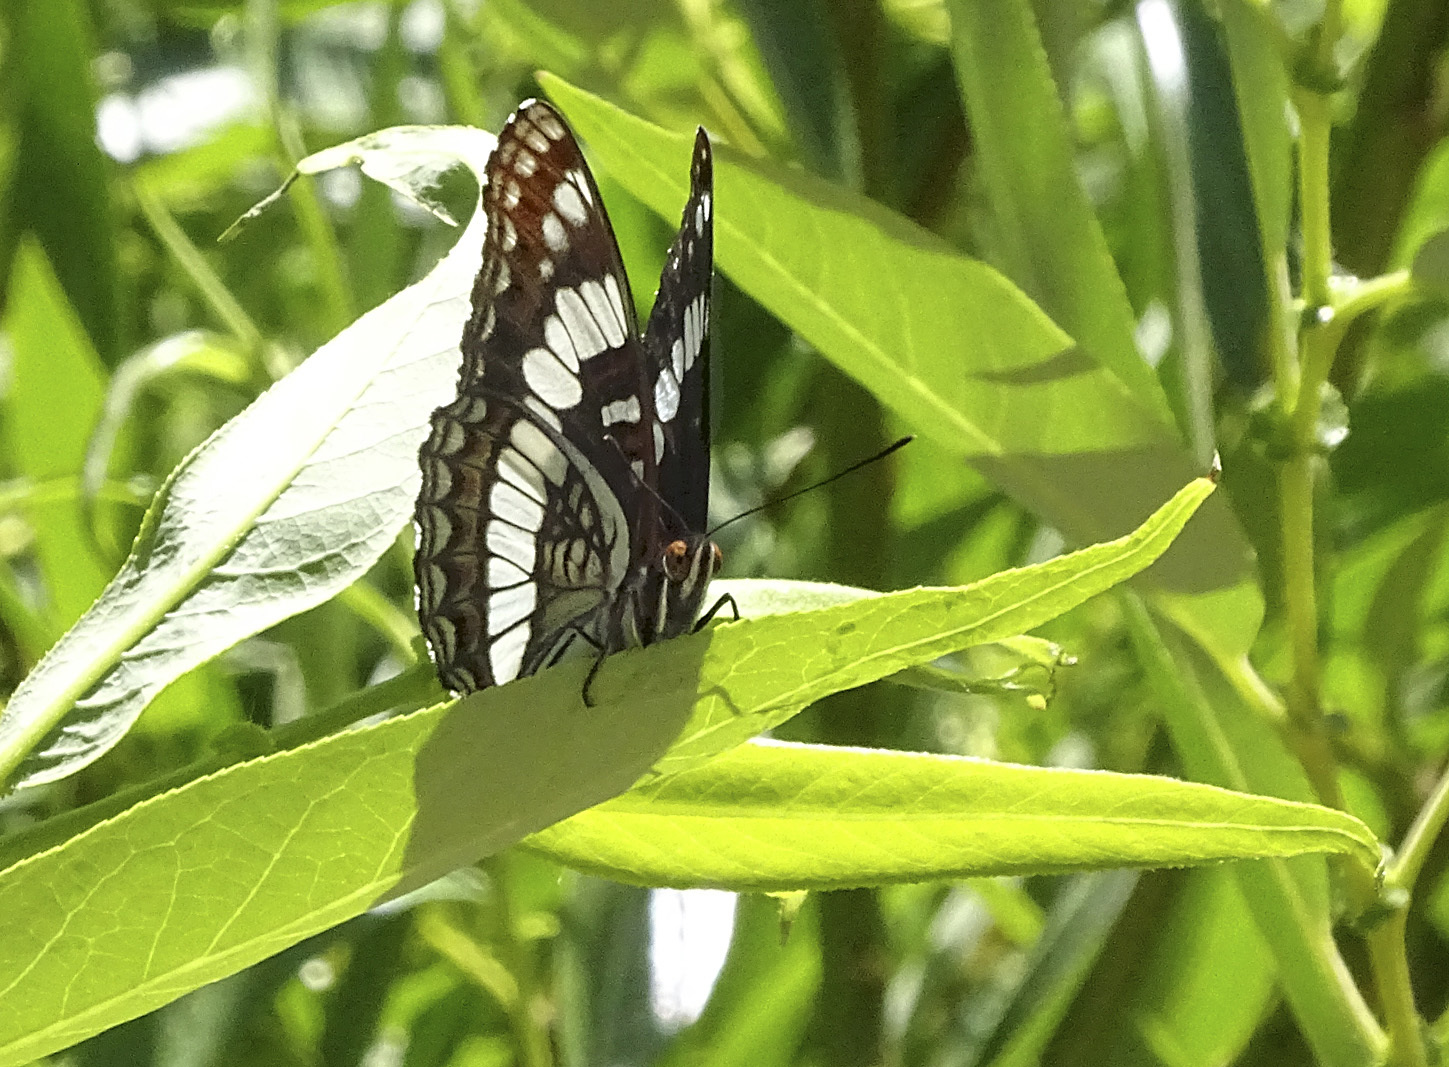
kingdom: Animalia
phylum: Arthropoda
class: Insecta
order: Lepidoptera
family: Nymphalidae
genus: Limenitis
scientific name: Limenitis weidemeyerii
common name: Weidemeyer's admiral
